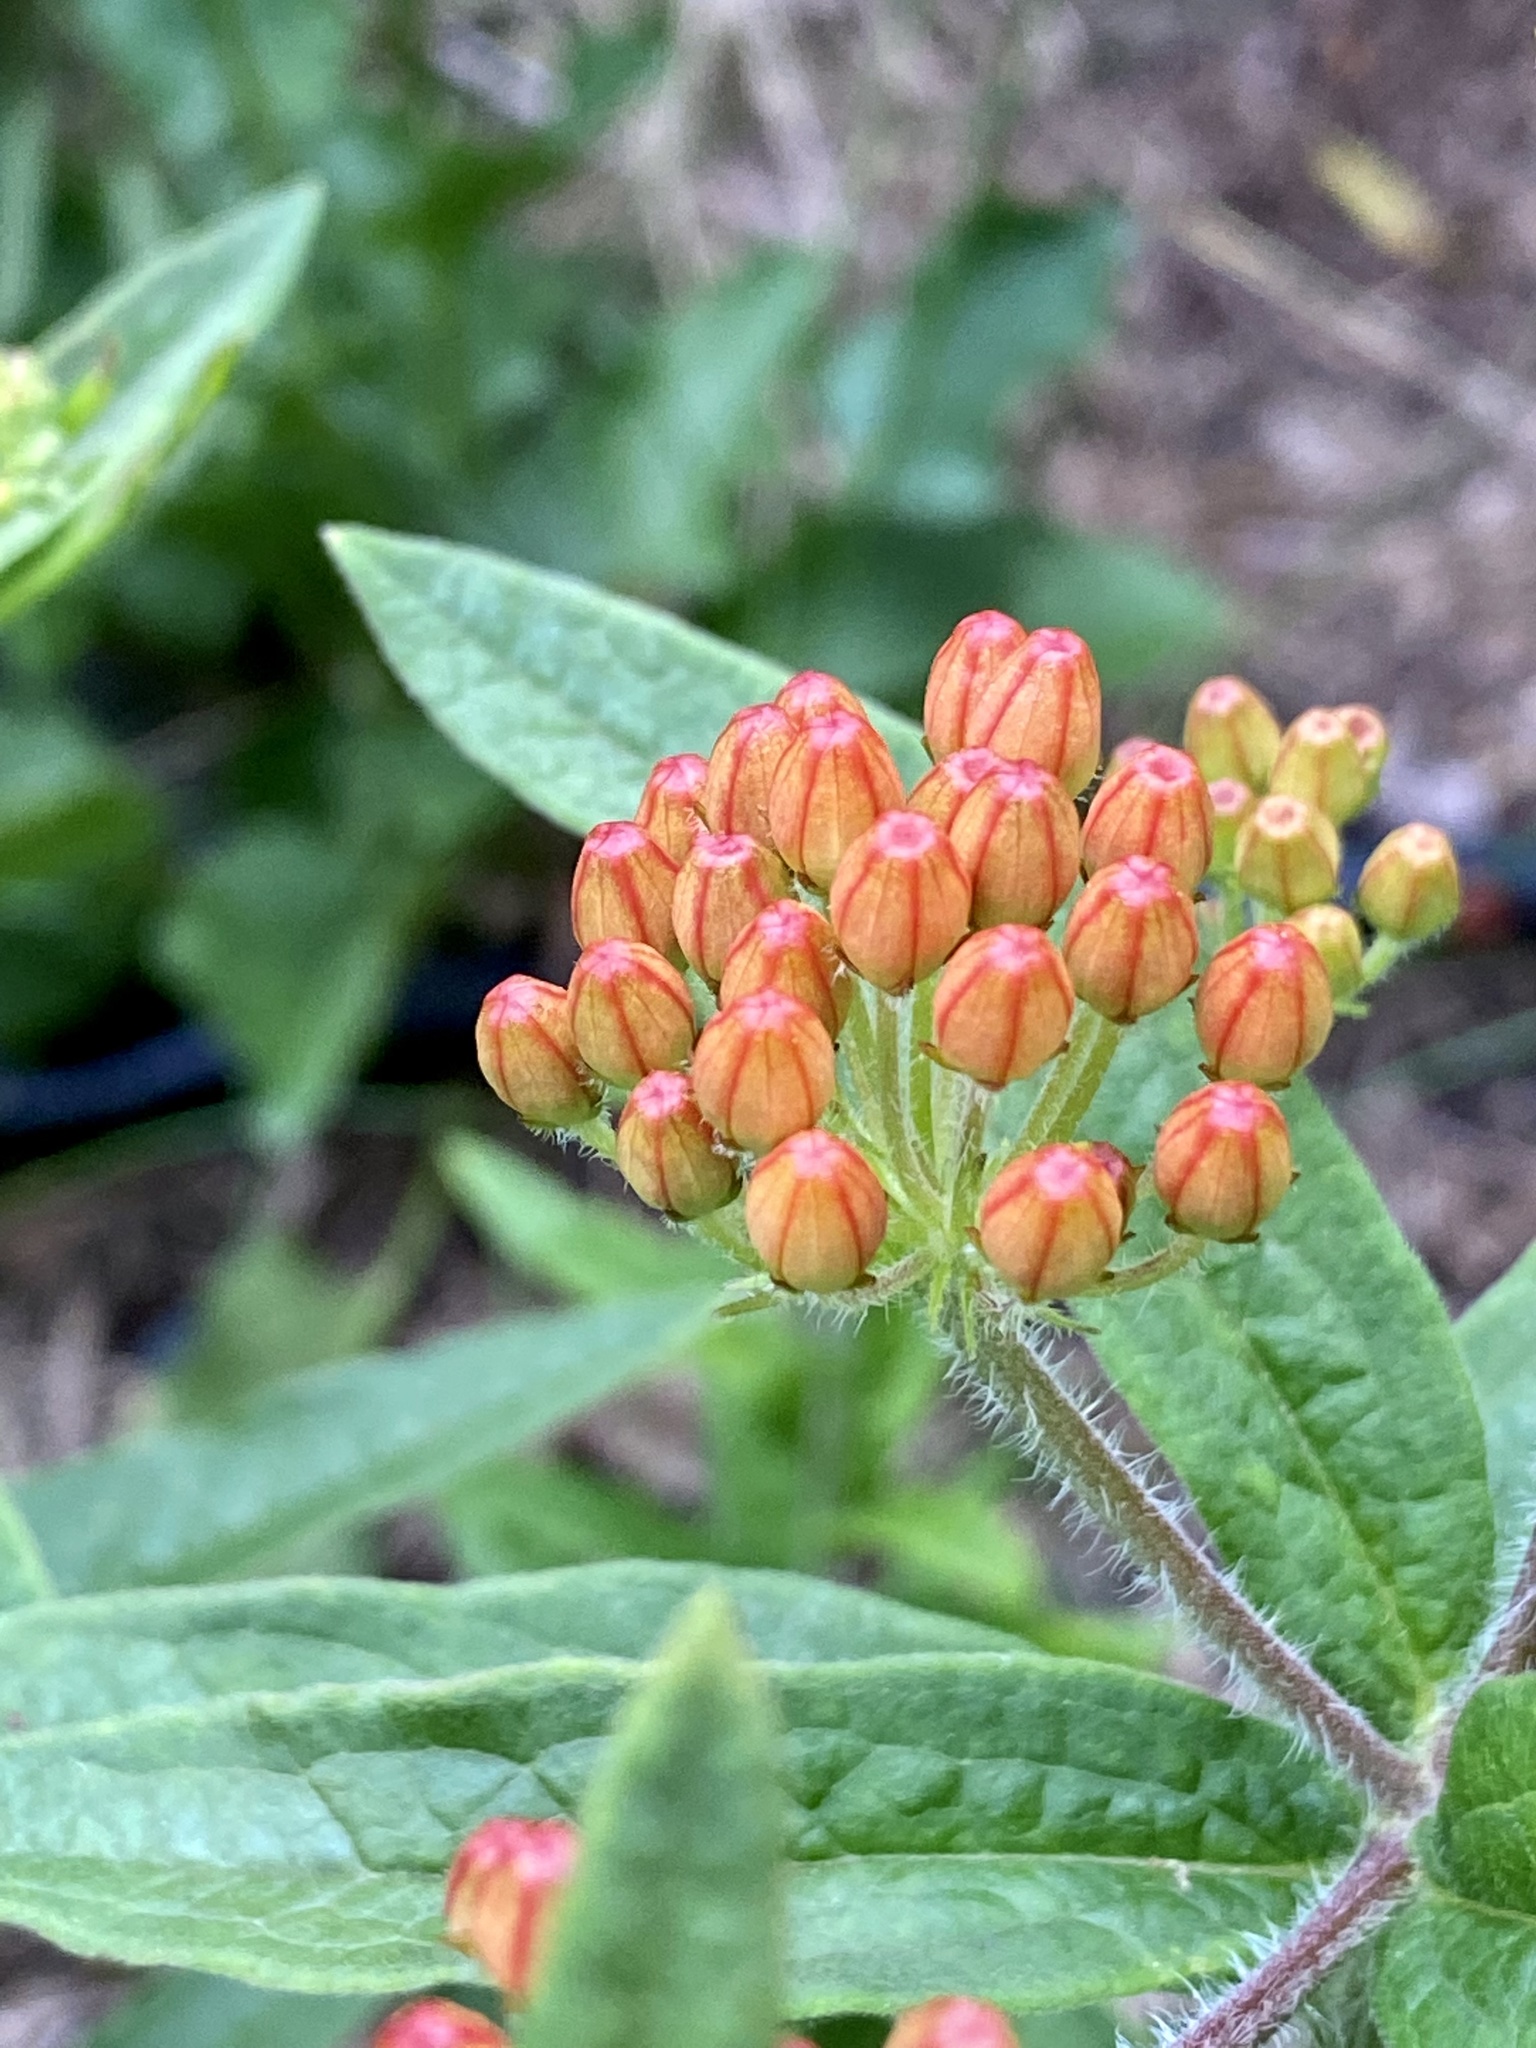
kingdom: Plantae
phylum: Tracheophyta
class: Magnoliopsida
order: Gentianales
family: Apocynaceae
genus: Asclepias
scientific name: Asclepias tuberosa
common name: Butterfly milkweed
